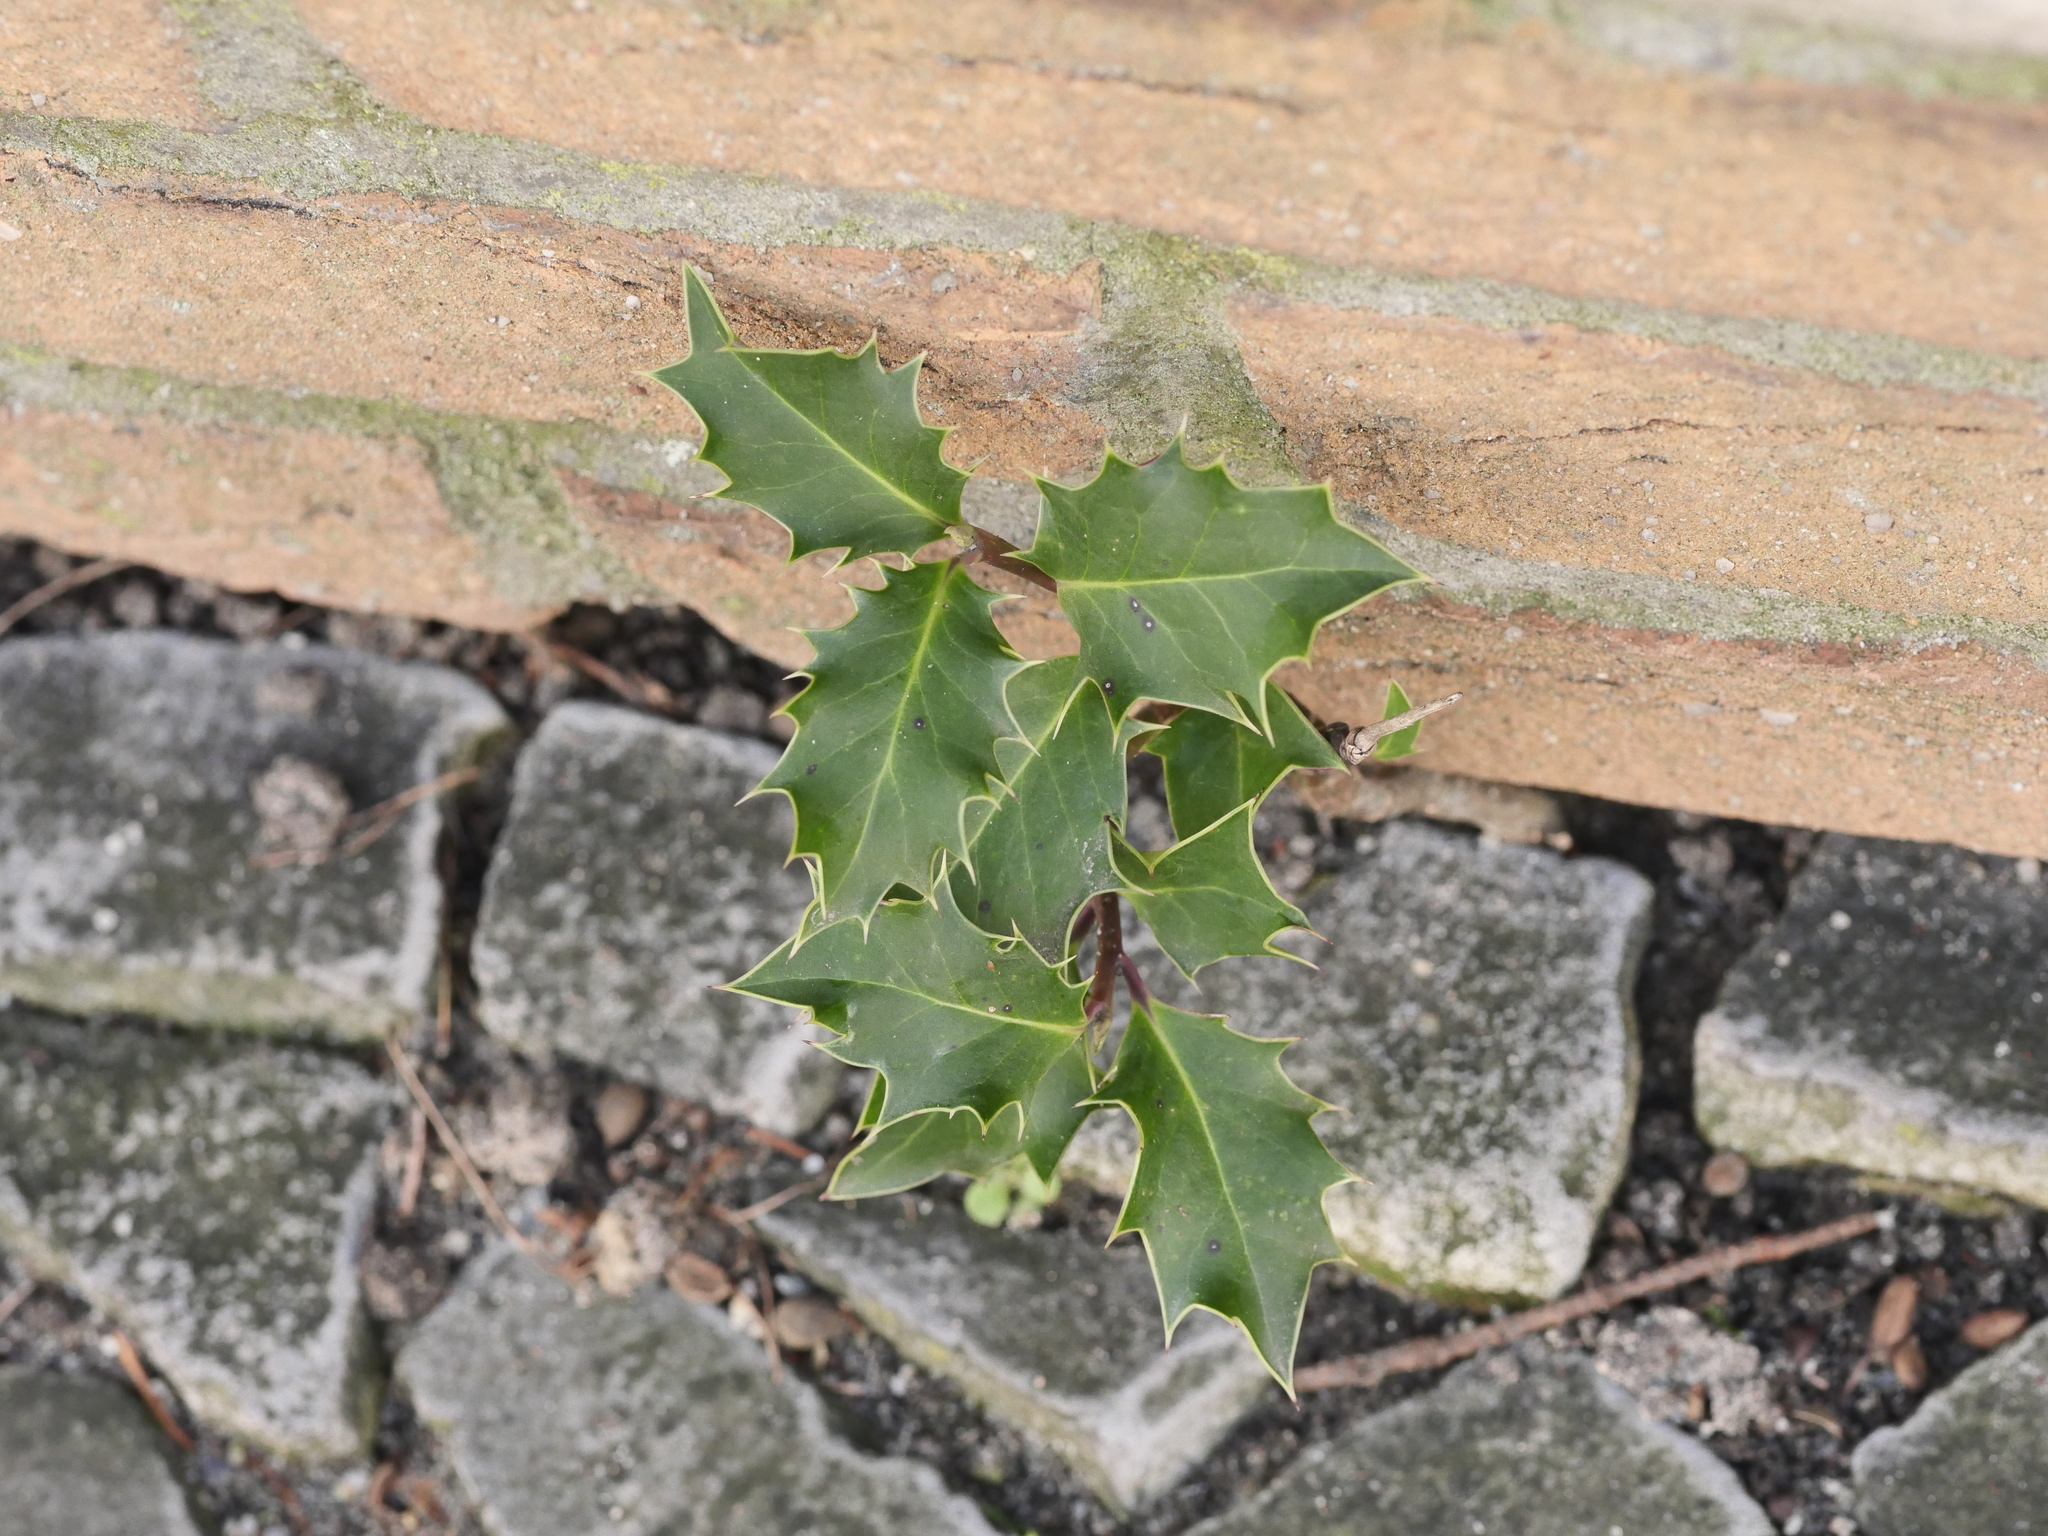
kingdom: Plantae
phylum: Tracheophyta
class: Magnoliopsida
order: Aquifoliales
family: Aquifoliaceae
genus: Ilex
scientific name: Ilex aquifolium
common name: English holly
